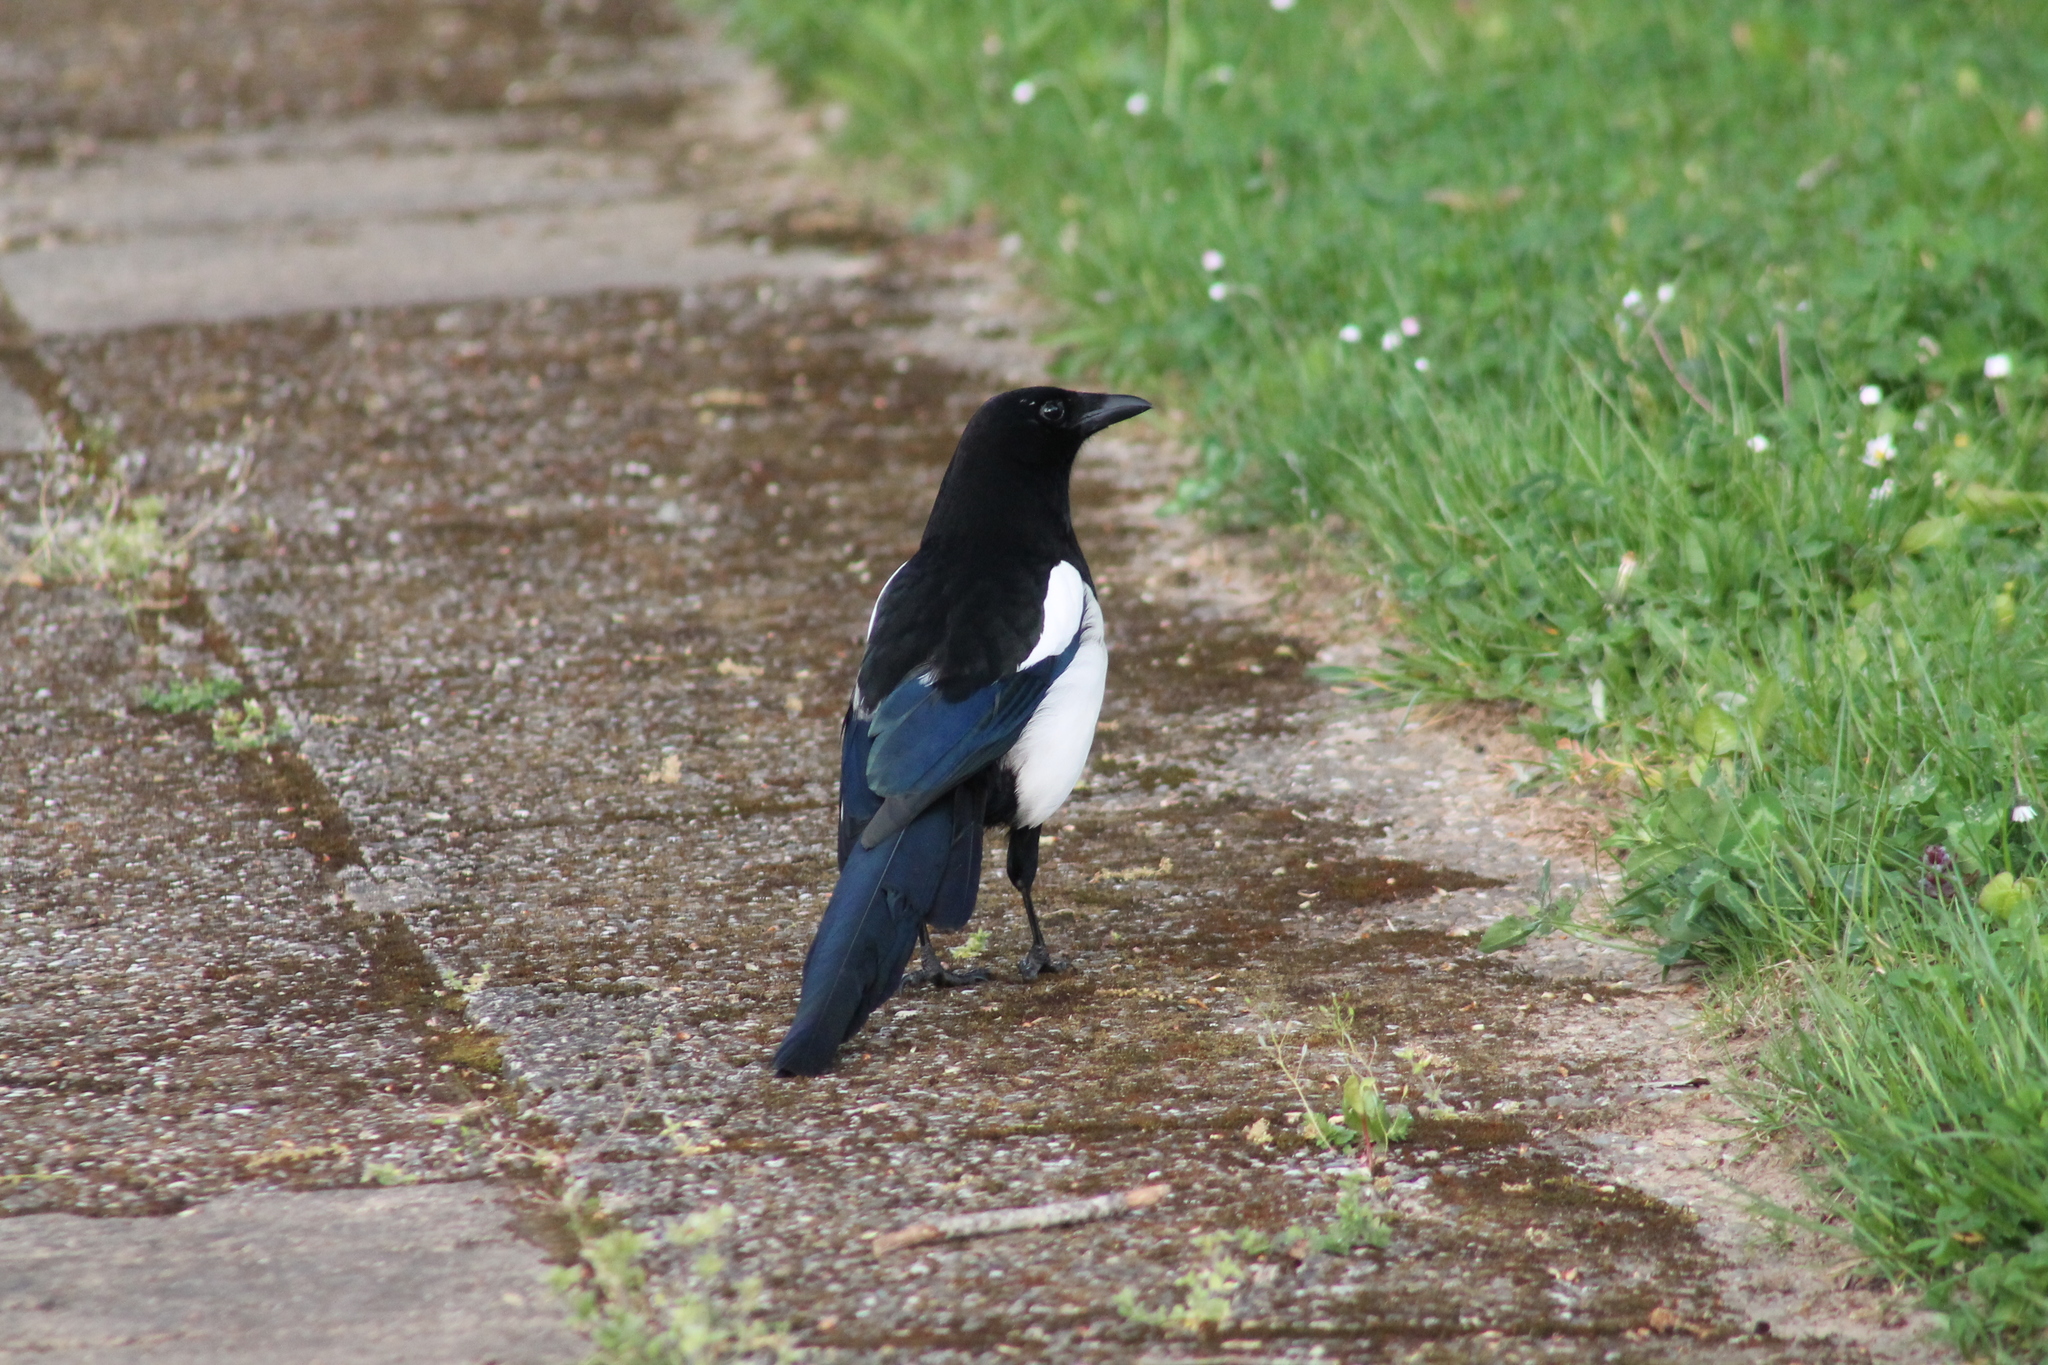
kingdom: Animalia
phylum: Chordata
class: Aves
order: Passeriformes
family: Corvidae
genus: Pica
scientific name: Pica pica
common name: Eurasian magpie
